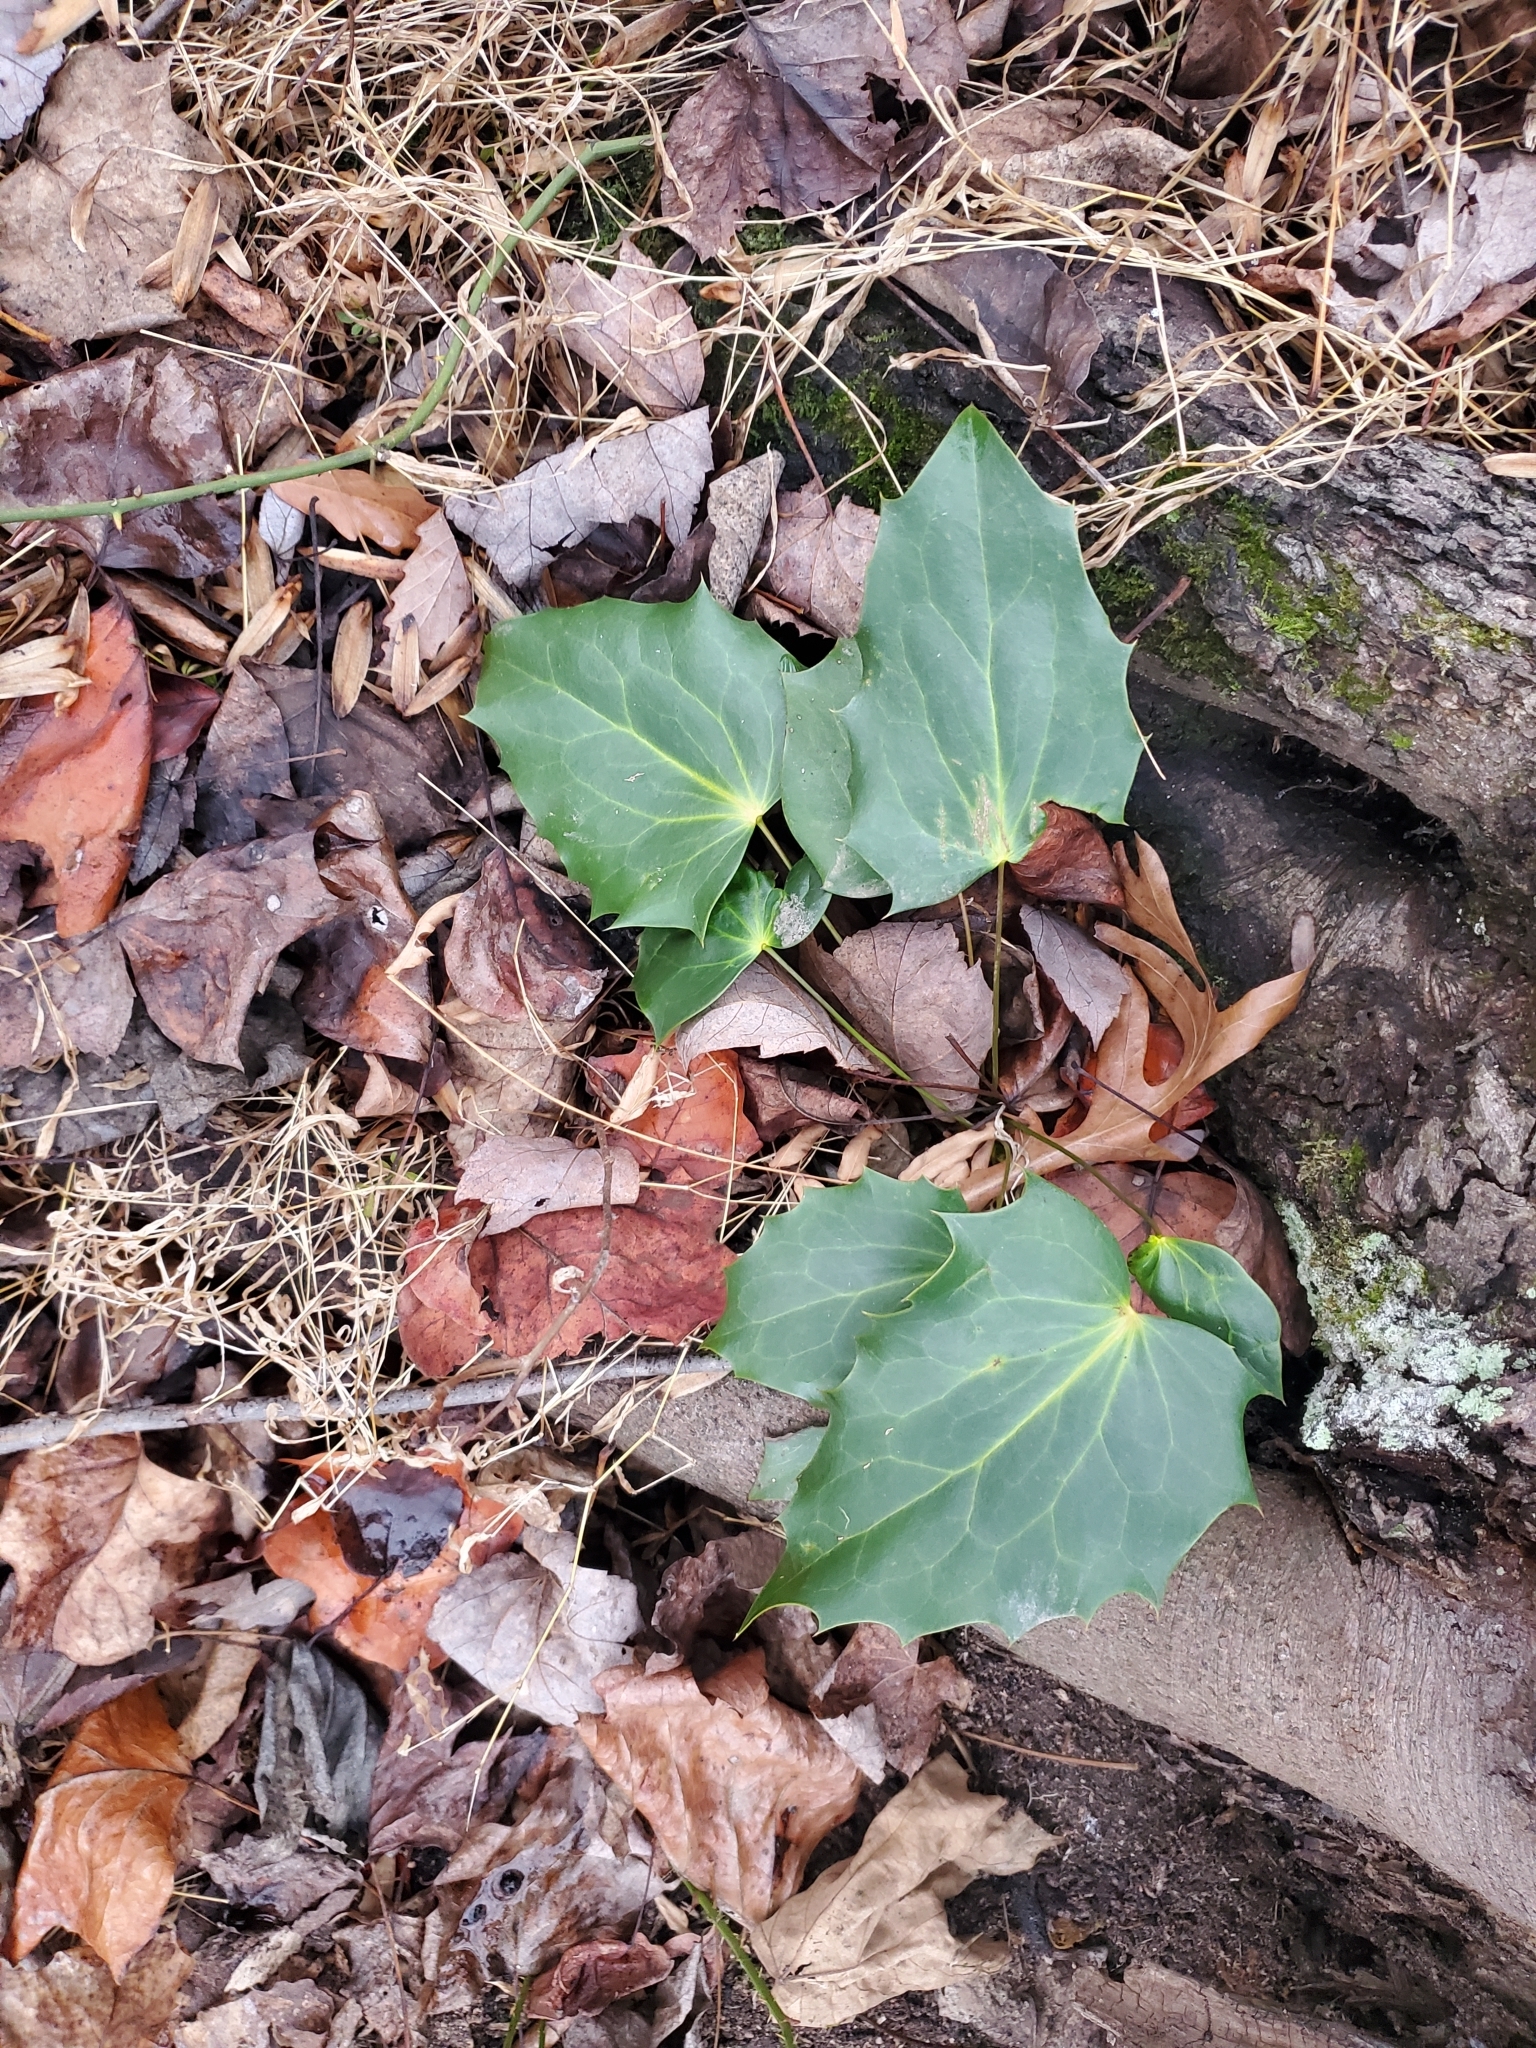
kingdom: Plantae
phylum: Tracheophyta
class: Magnoliopsida
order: Ranunculales
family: Berberidaceae
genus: Mahonia
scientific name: Mahonia bealei
